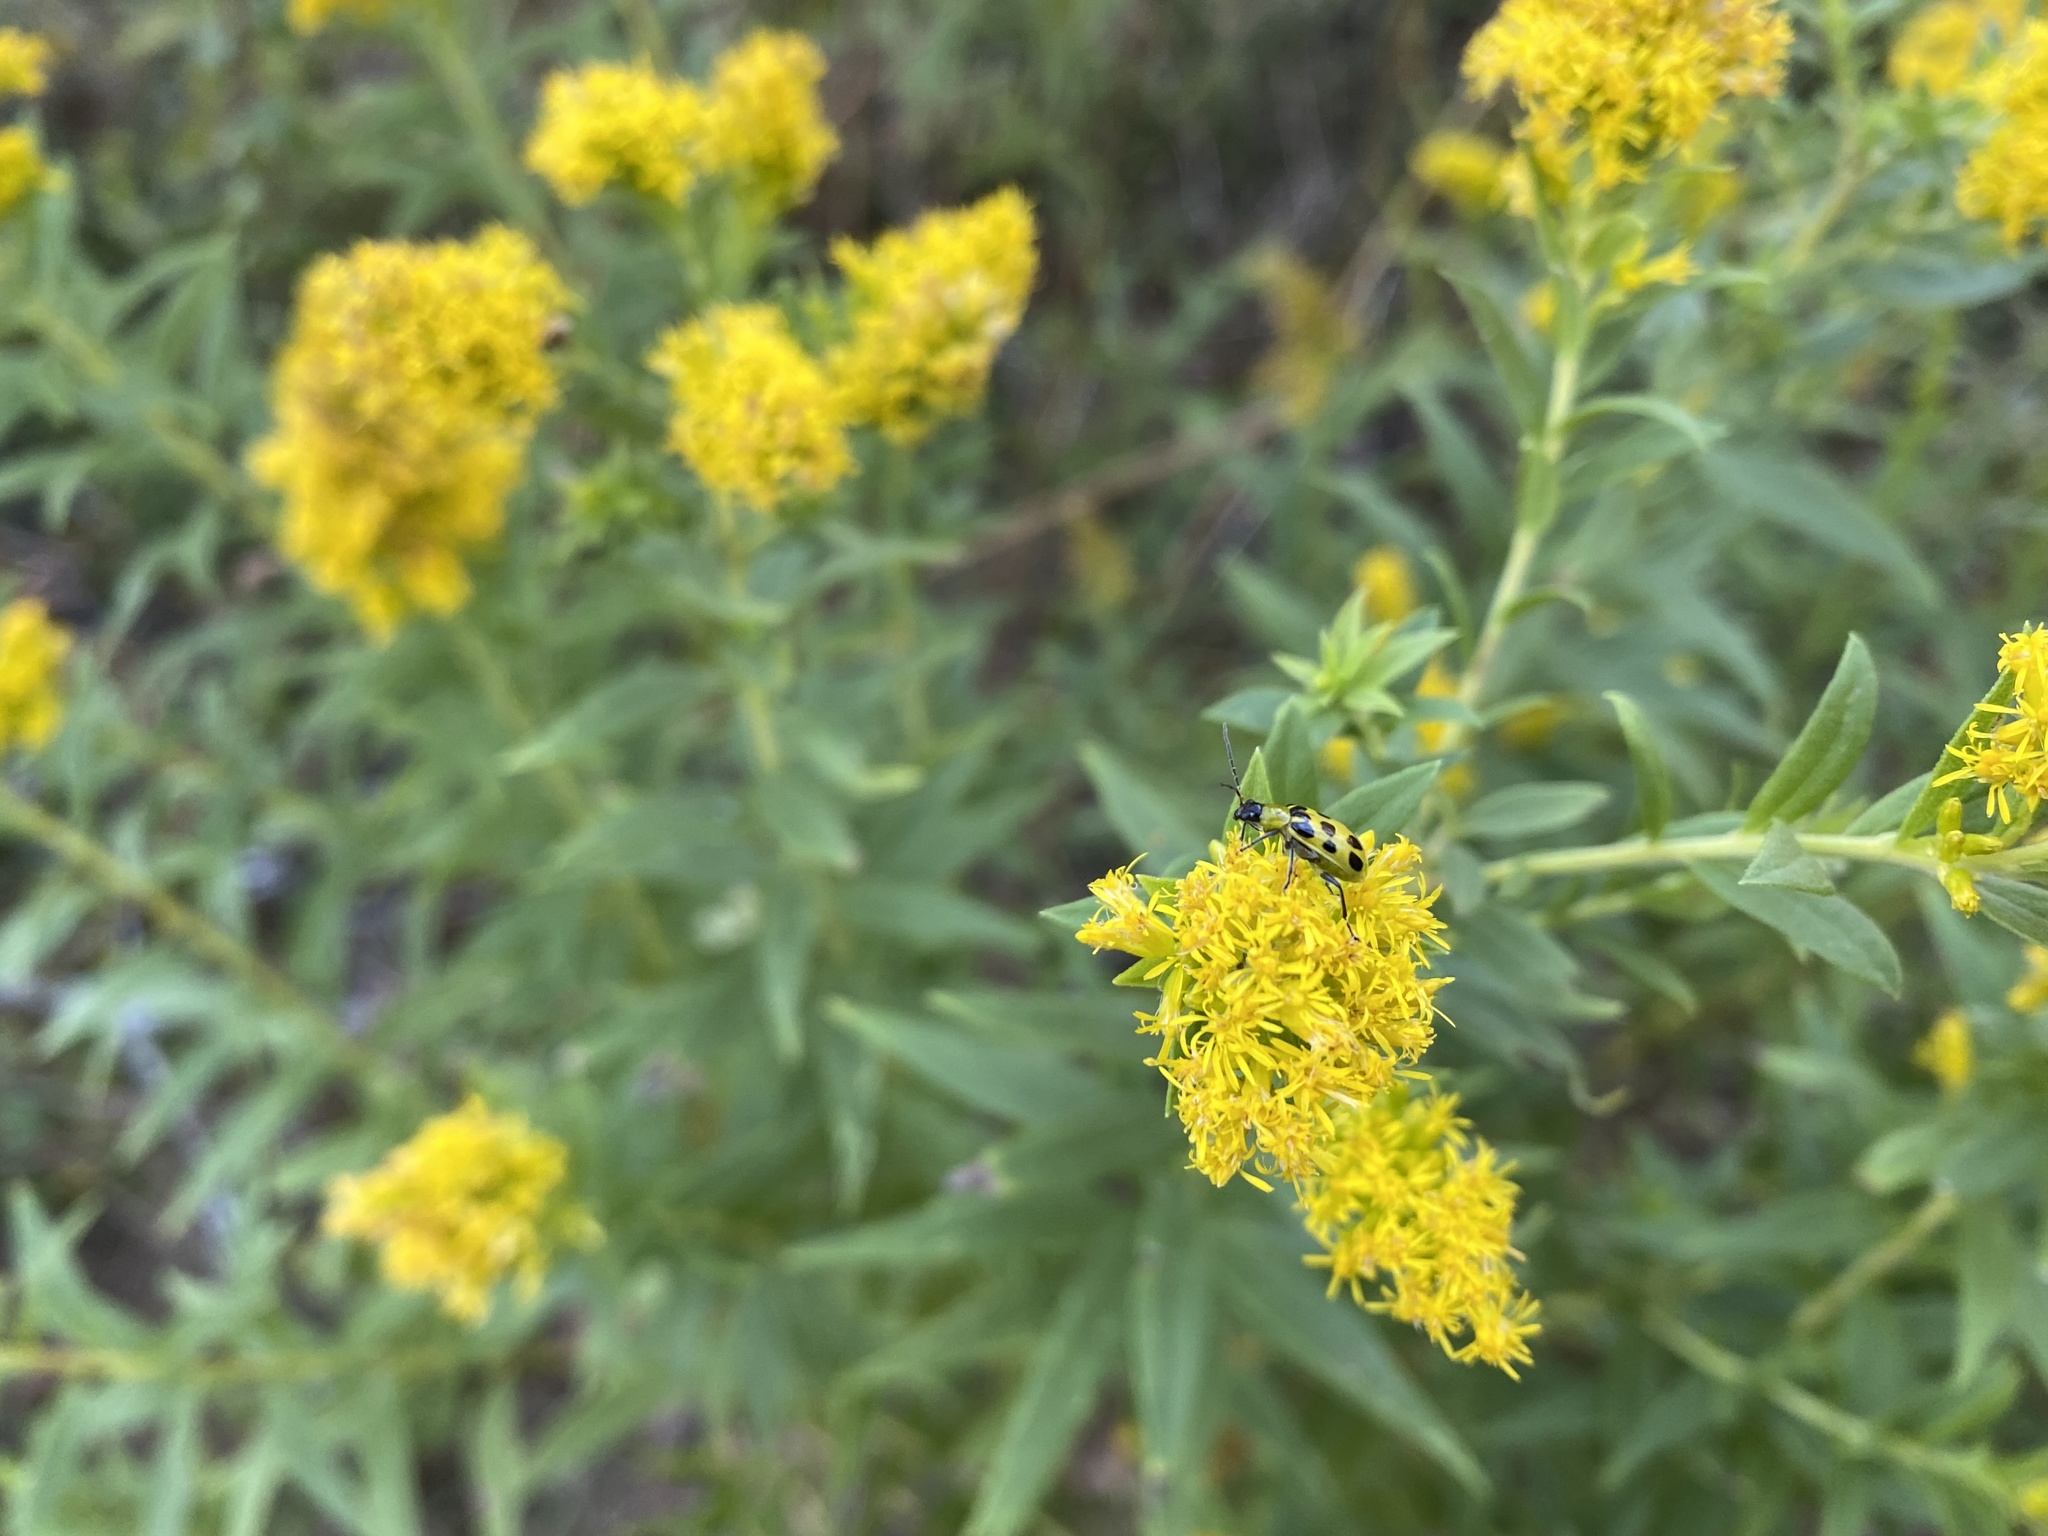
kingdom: Animalia
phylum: Arthropoda
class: Insecta
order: Coleoptera
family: Chrysomelidae
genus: Diabrotica
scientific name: Diabrotica undecimpunctata
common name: Spotted cucumber beetle
